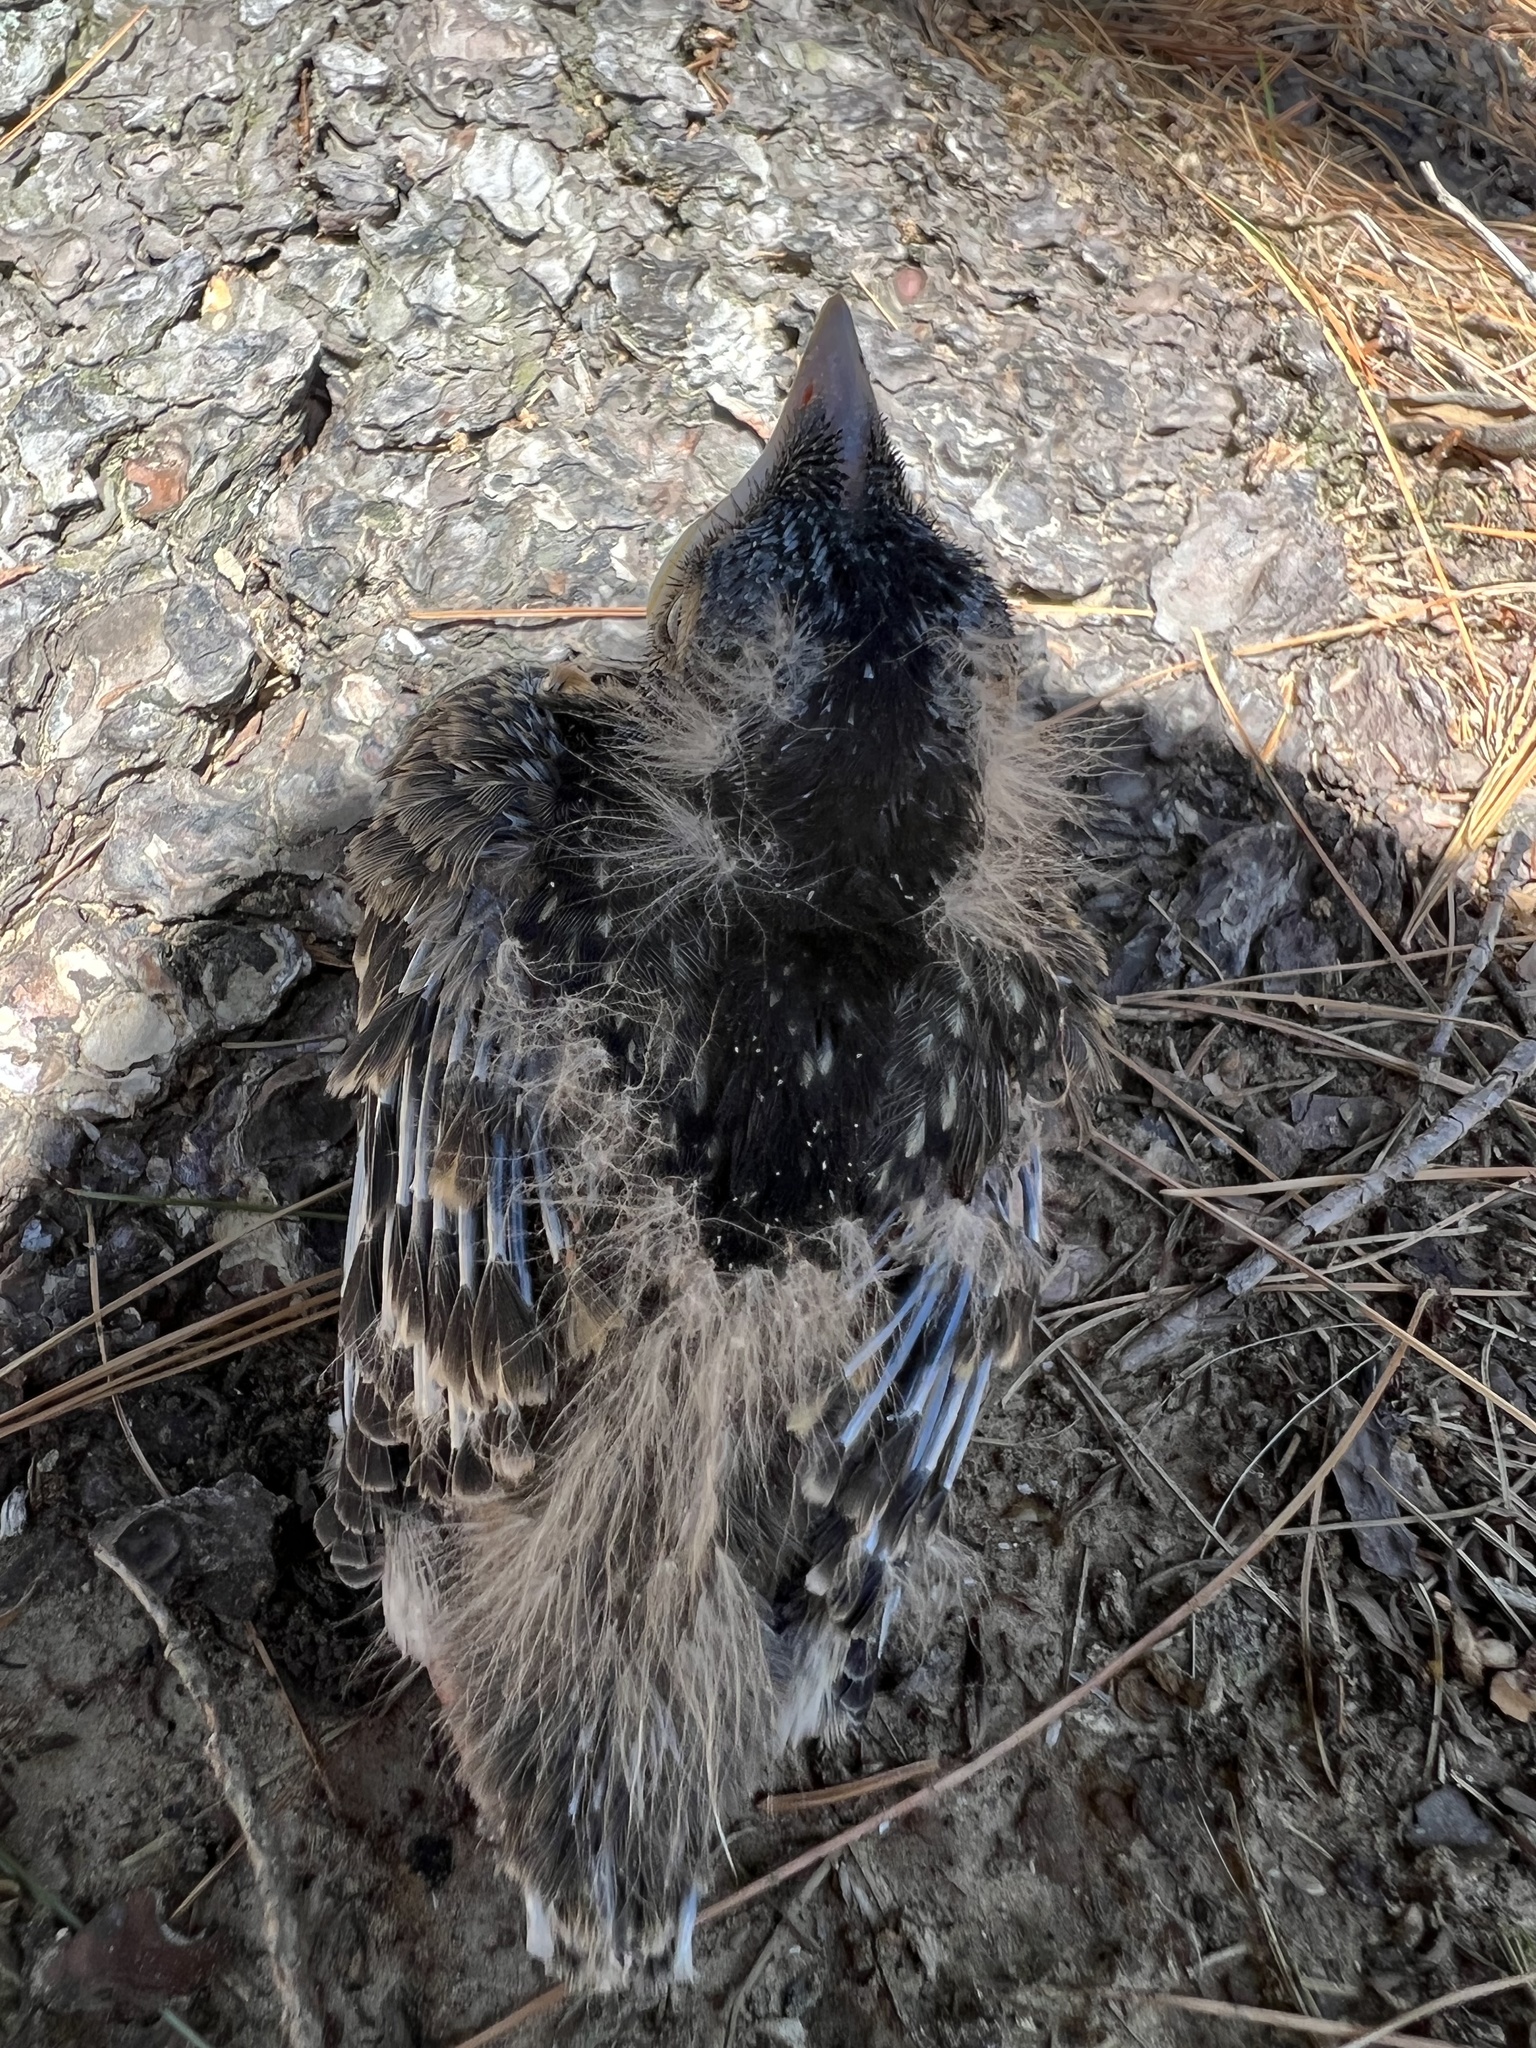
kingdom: Animalia
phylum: Chordata
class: Aves
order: Passeriformes
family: Turdidae
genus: Turdus
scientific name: Turdus migratorius
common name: American robin
